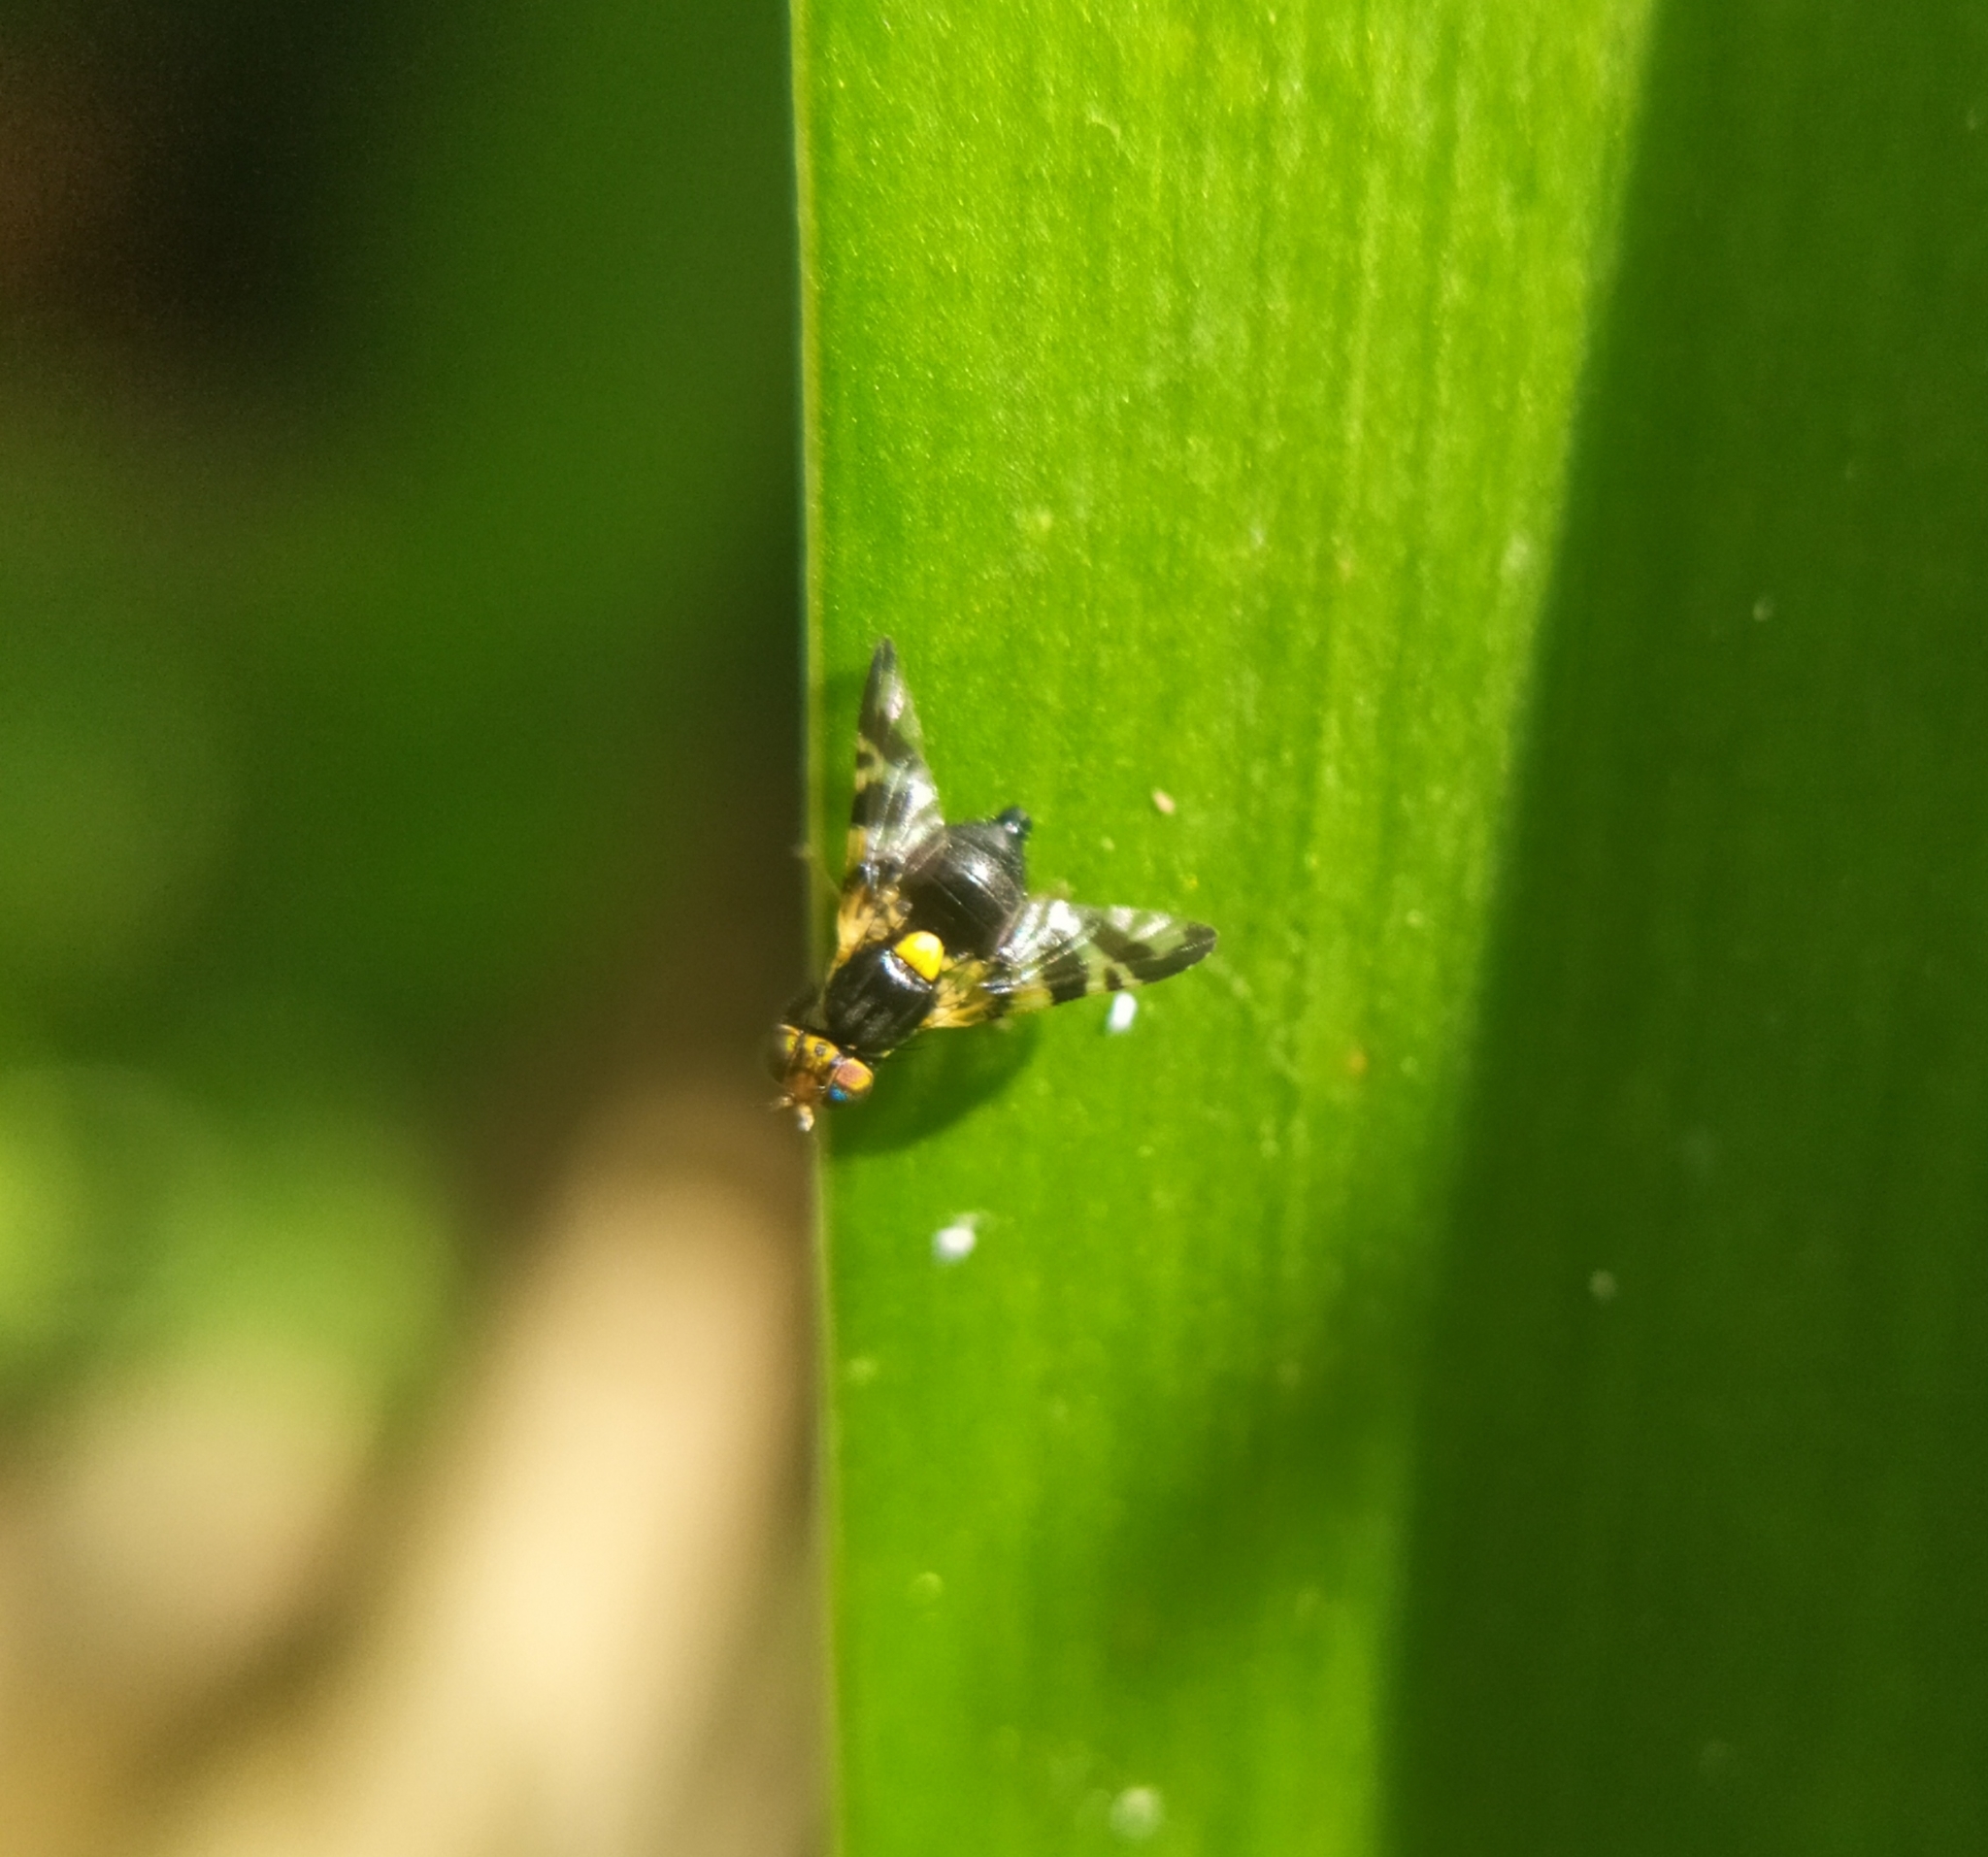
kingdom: Animalia
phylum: Arthropoda
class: Insecta
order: Diptera
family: Tephritidae
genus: Rhagoletis
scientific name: Rhagoletis cerasi
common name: European cherry fruit fly
